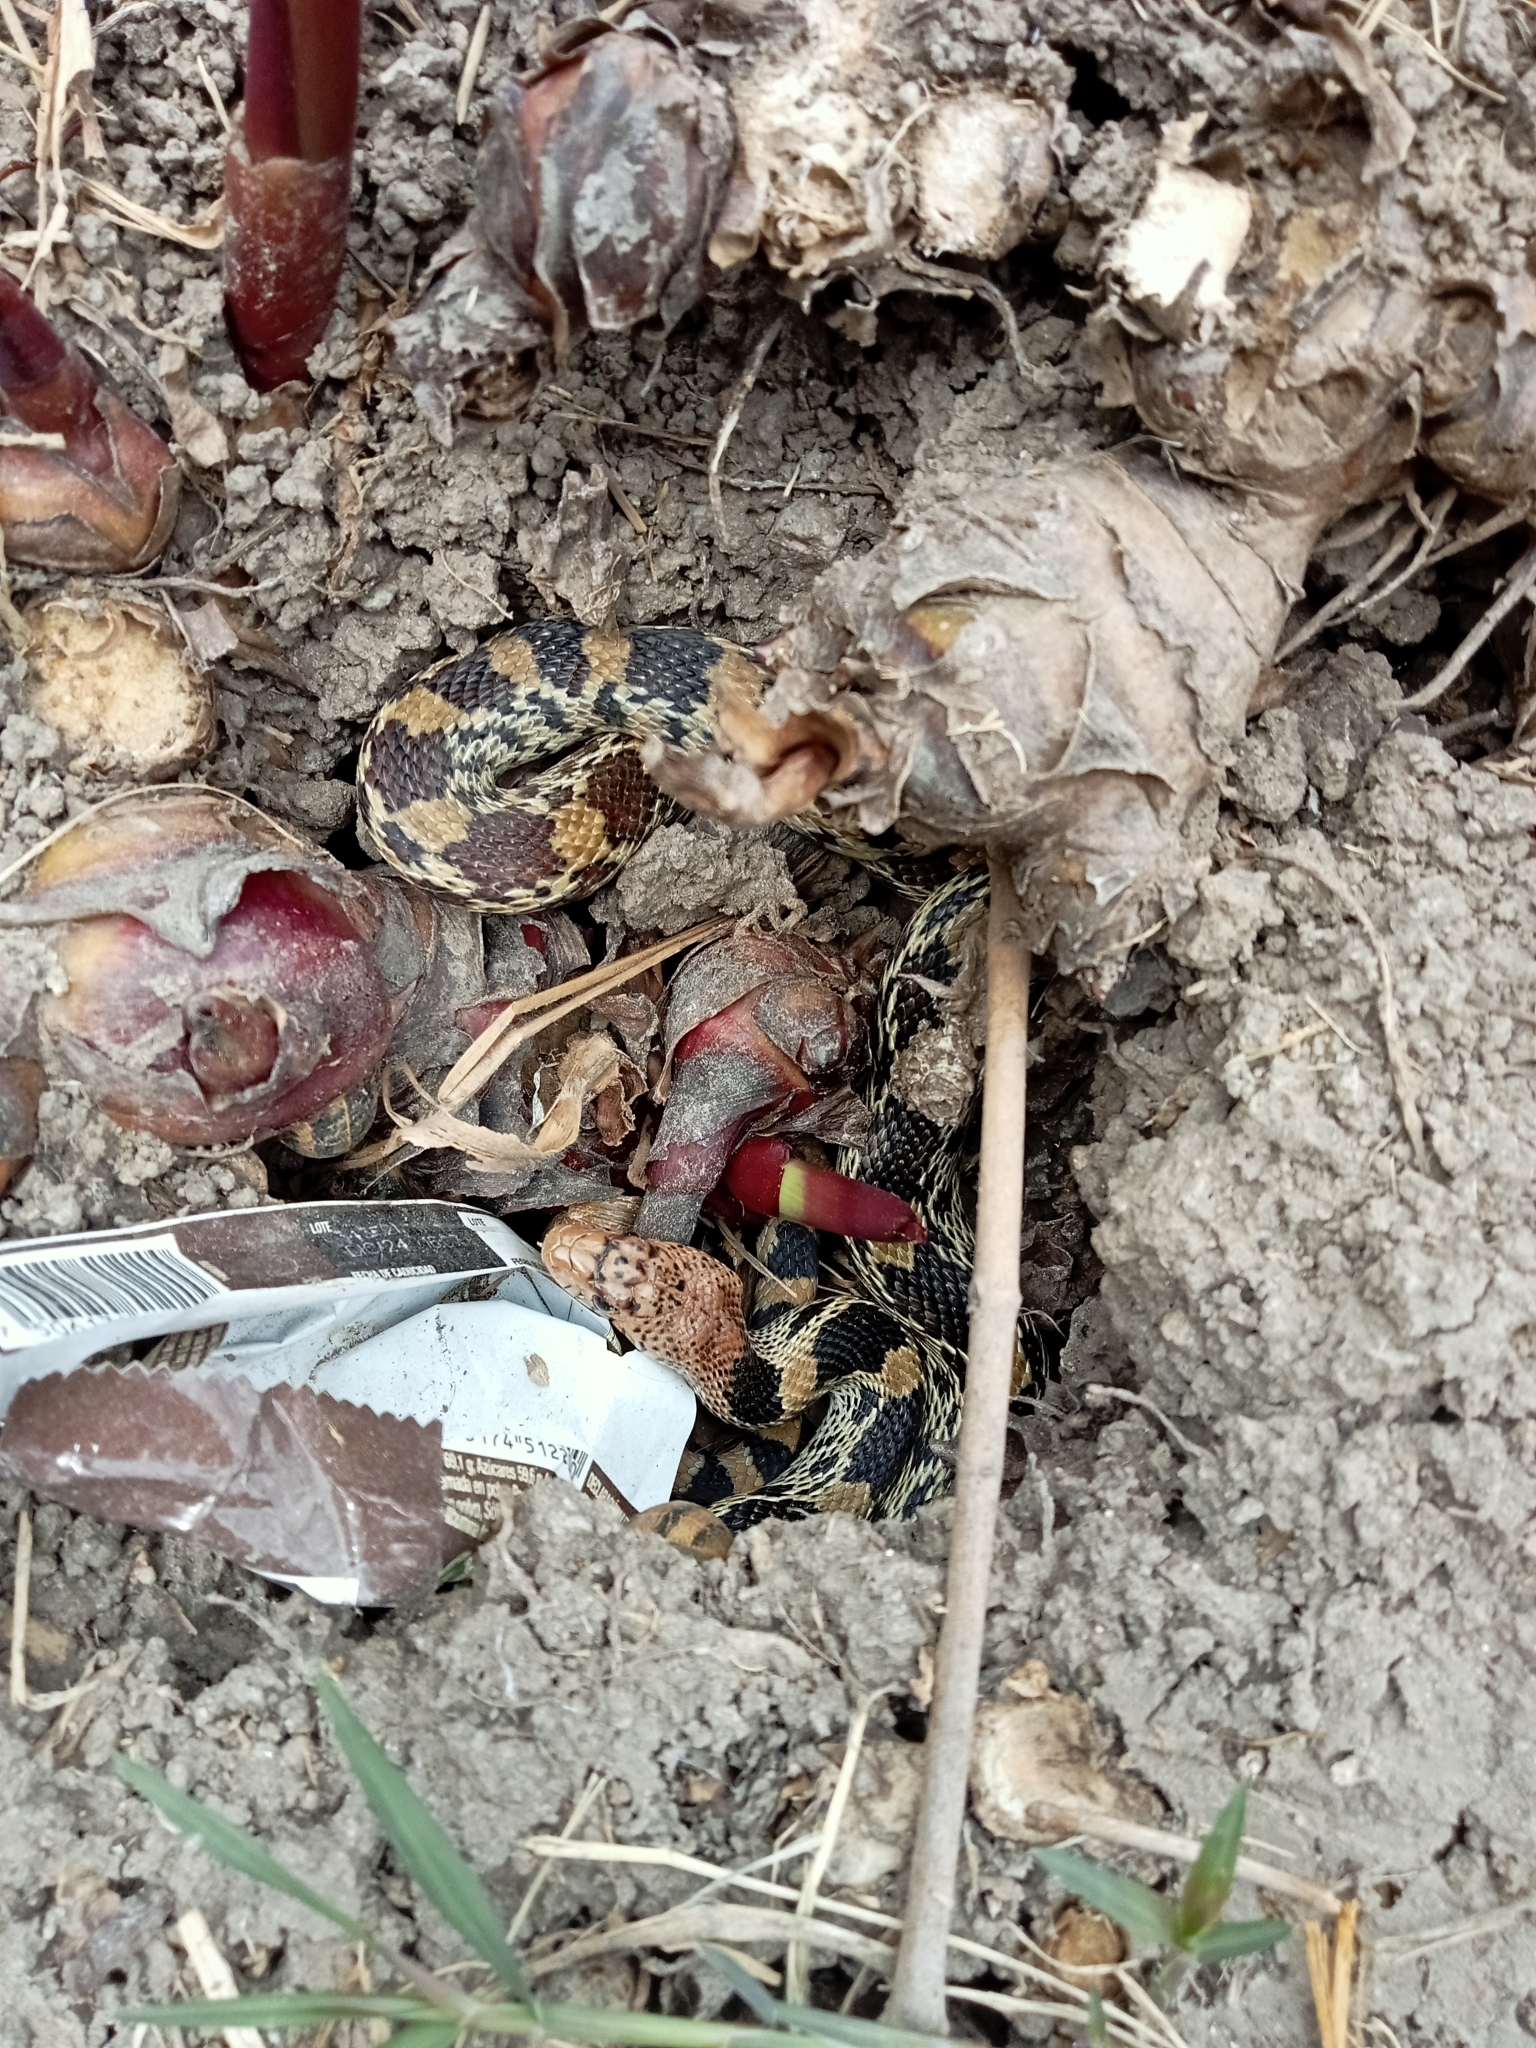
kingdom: Animalia
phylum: Chordata
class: Squamata
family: Colubridae
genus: Pituophis
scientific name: Pituophis deppei
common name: Mexican bull snake
